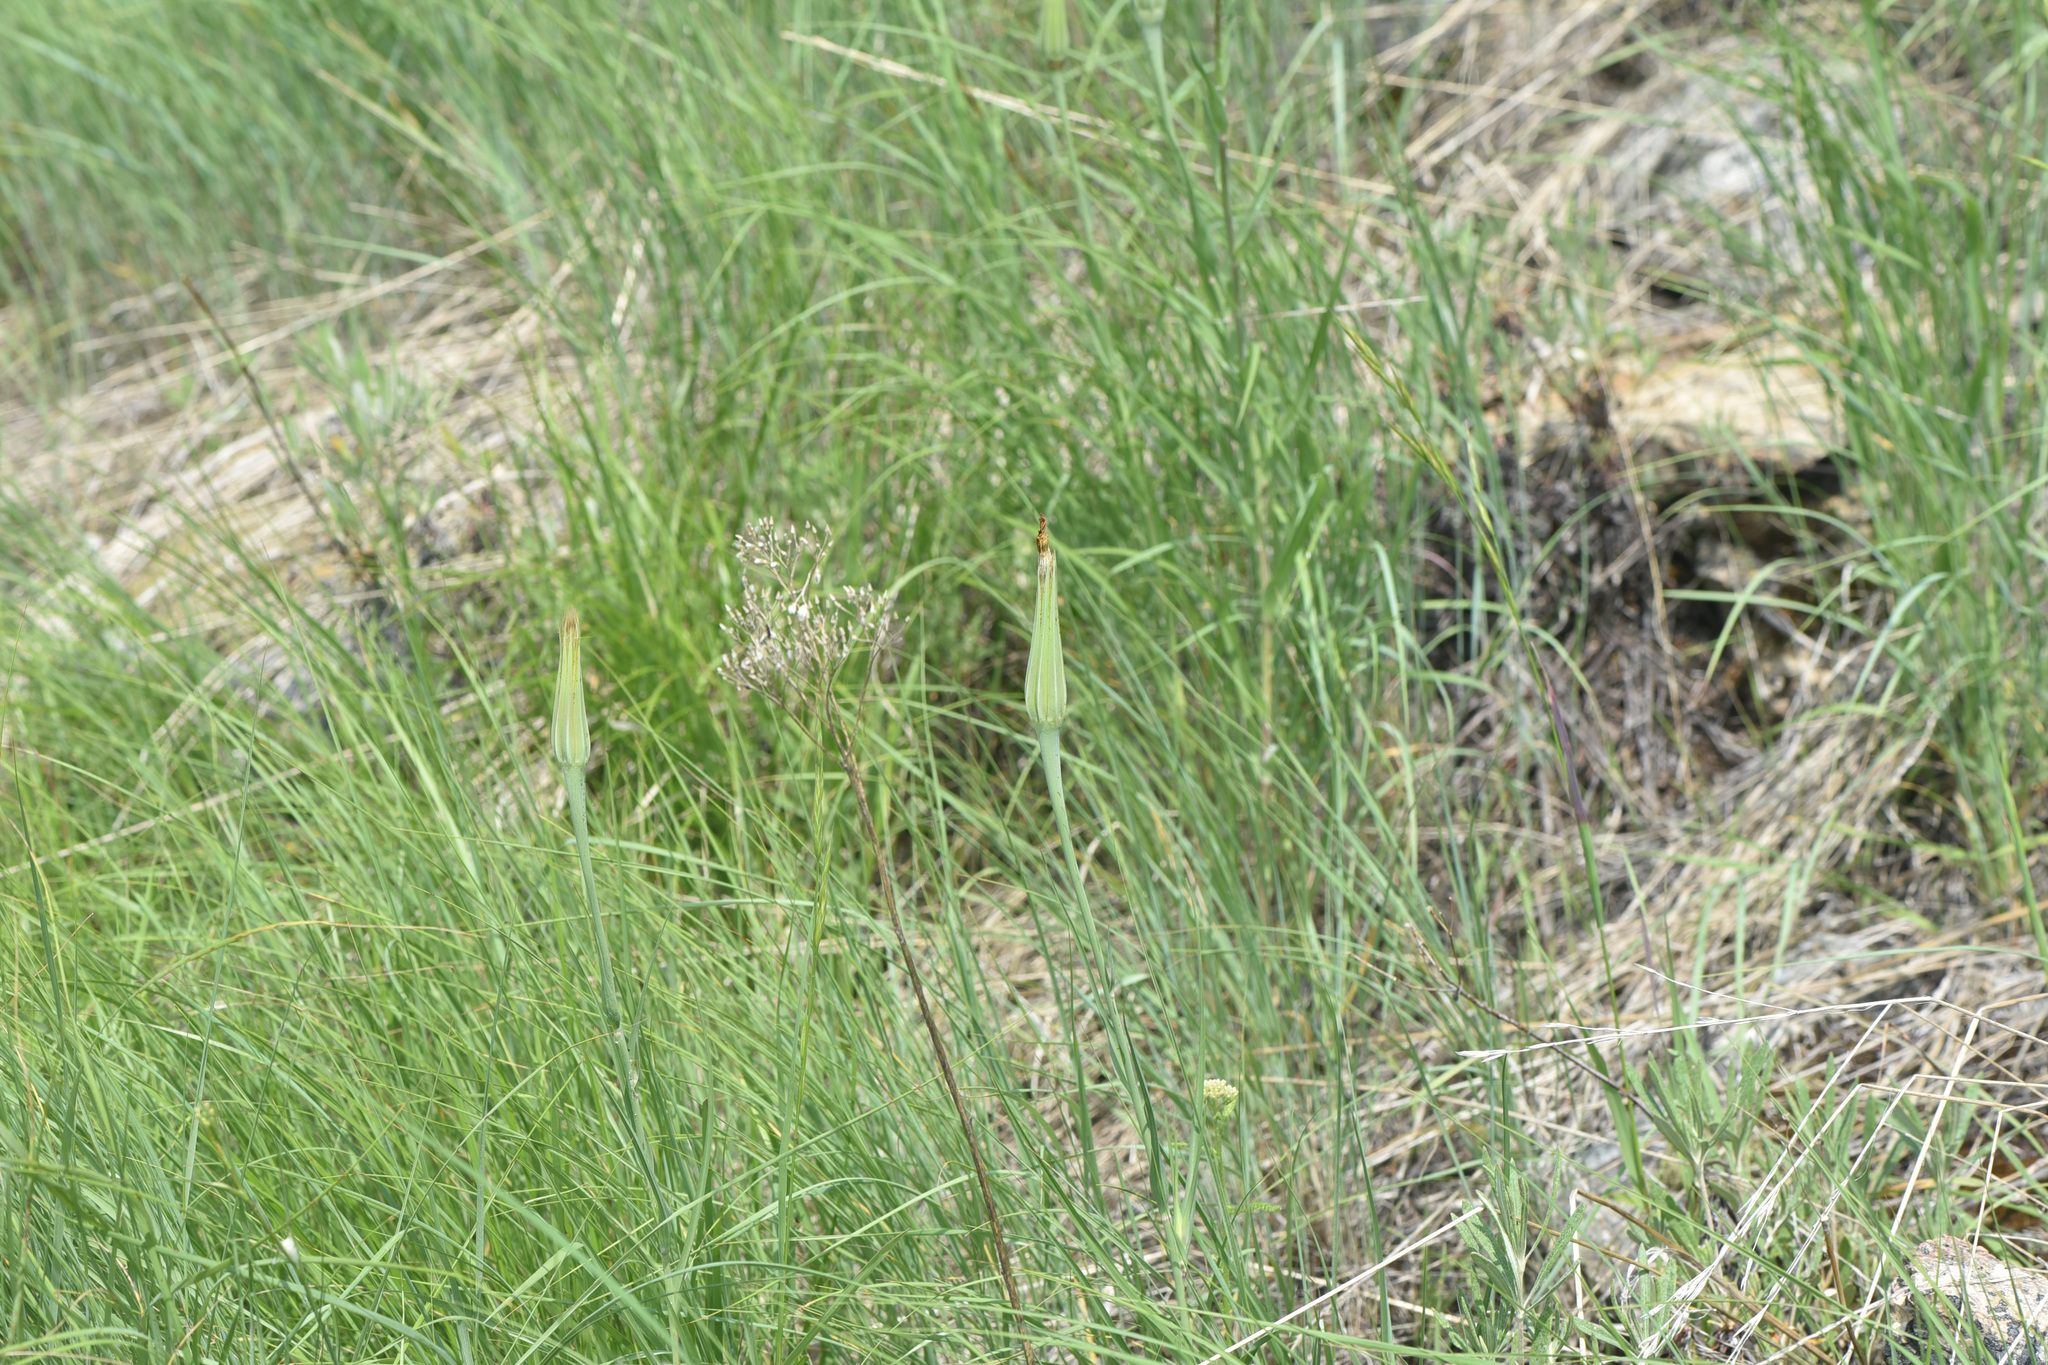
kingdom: Plantae
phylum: Tracheophyta
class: Magnoliopsida
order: Asterales
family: Asteraceae
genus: Tragopogon
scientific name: Tragopogon dubius
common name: Yellow salsify
